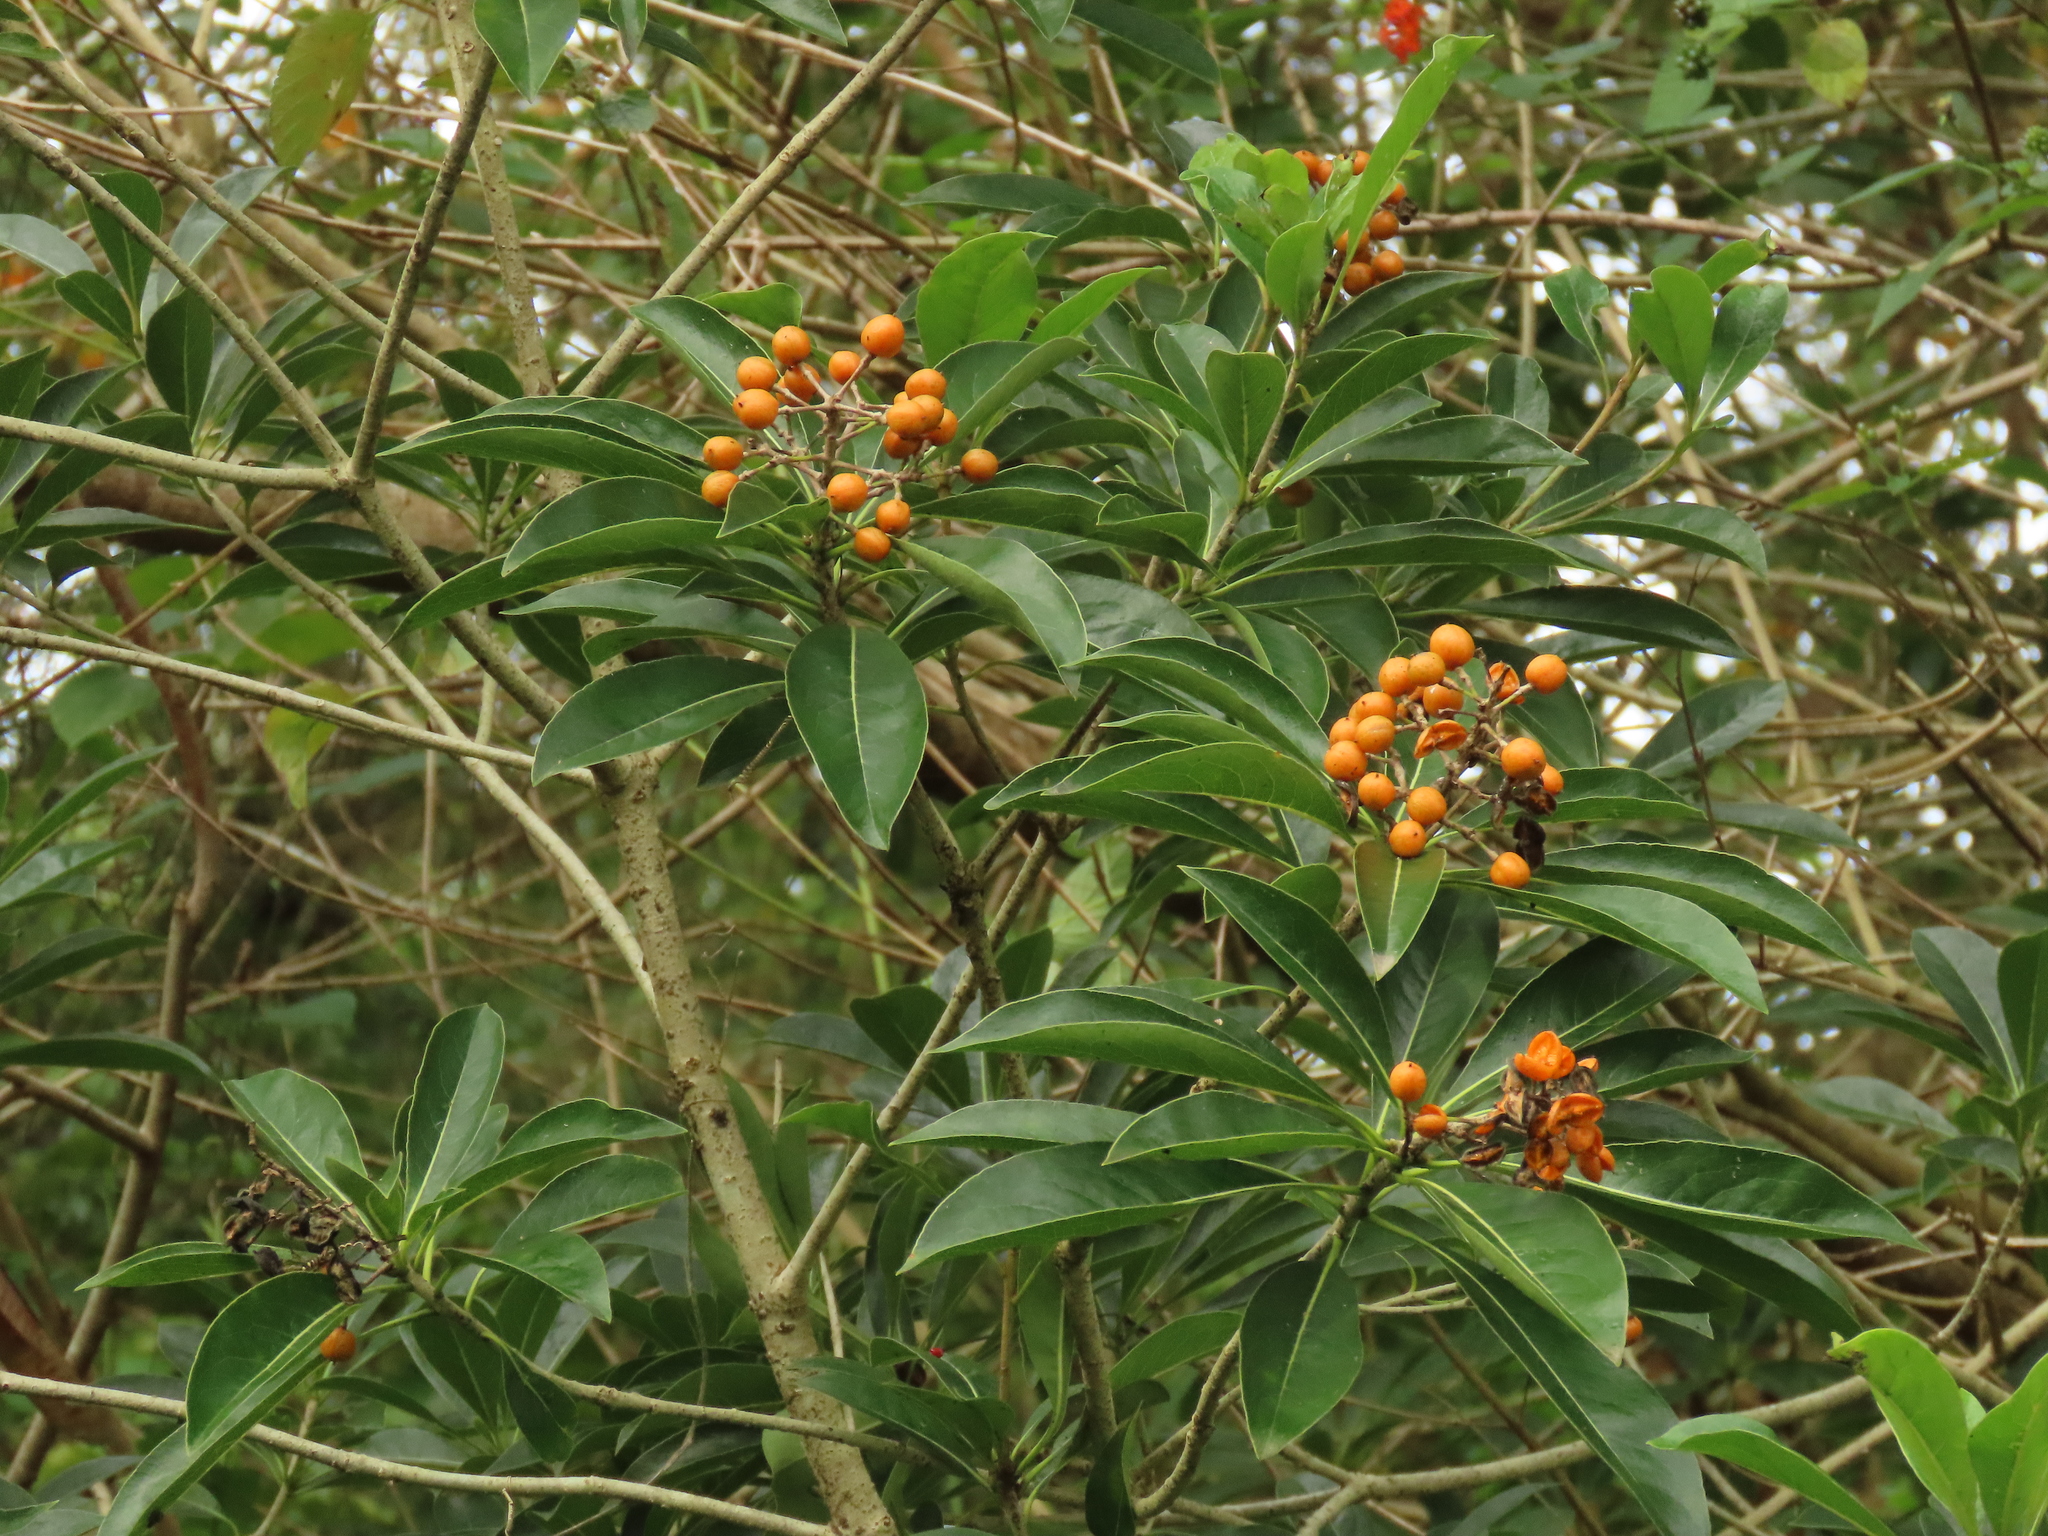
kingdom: Plantae
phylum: Tracheophyta
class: Magnoliopsida
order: Apiales
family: Pittosporaceae
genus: Pittosporum
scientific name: Pittosporum pentandrum
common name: Taiwanese cheesewood
